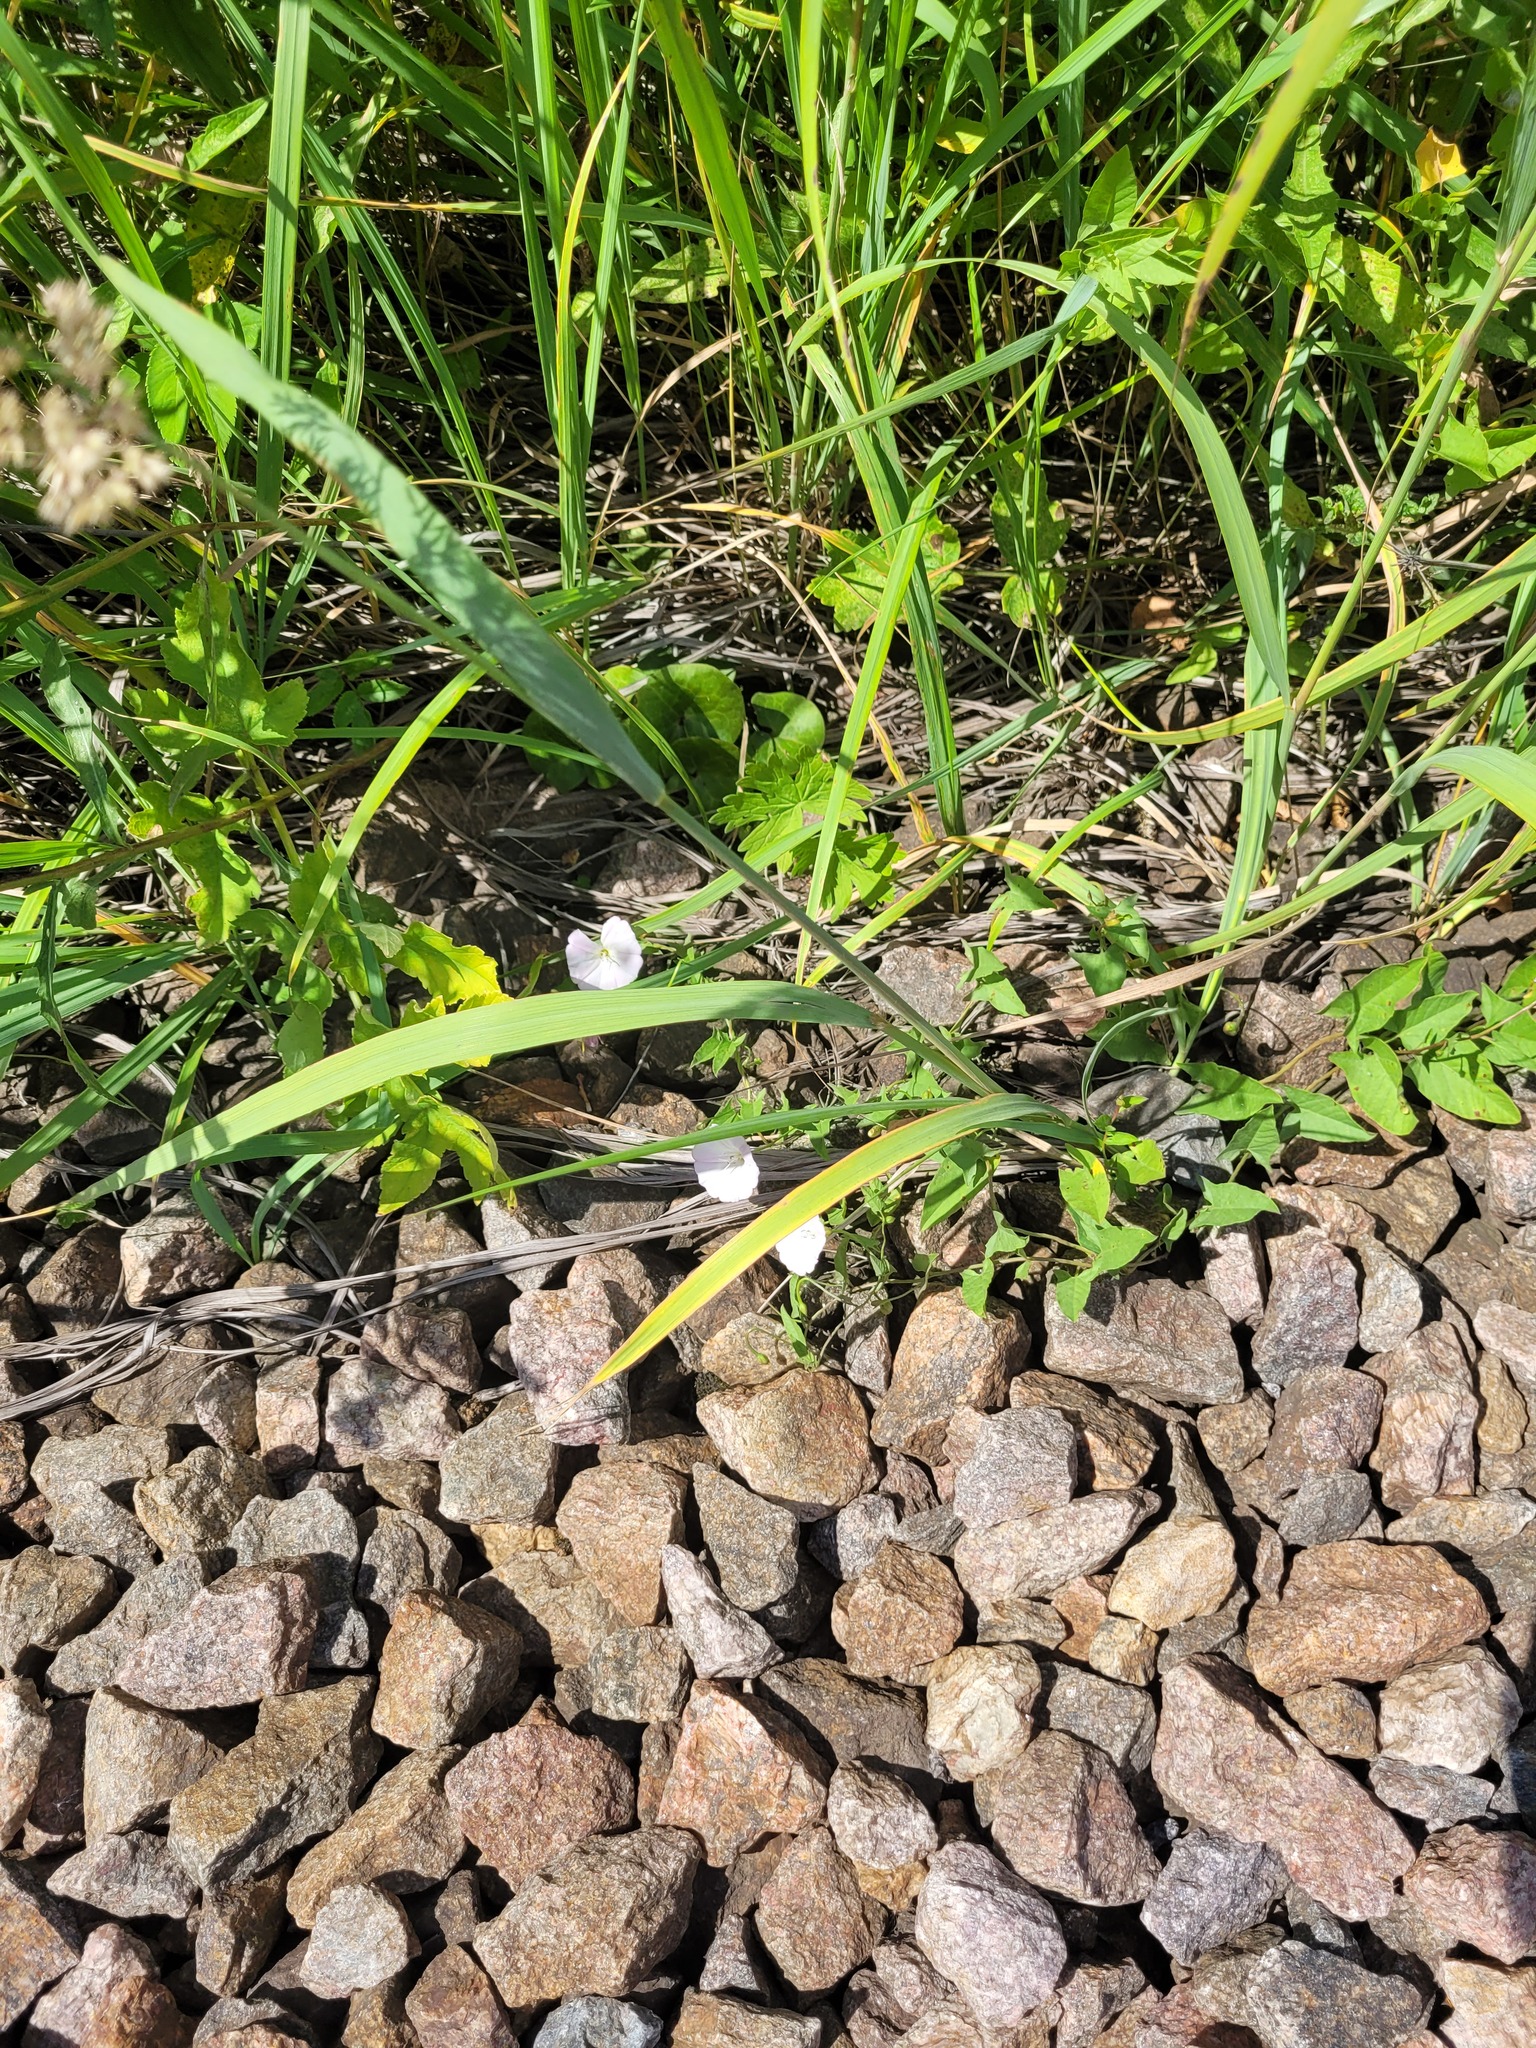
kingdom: Plantae
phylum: Tracheophyta
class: Magnoliopsida
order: Solanales
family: Convolvulaceae
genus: Convolvulus
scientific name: Convolvulus arvensis
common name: Field bindweed
